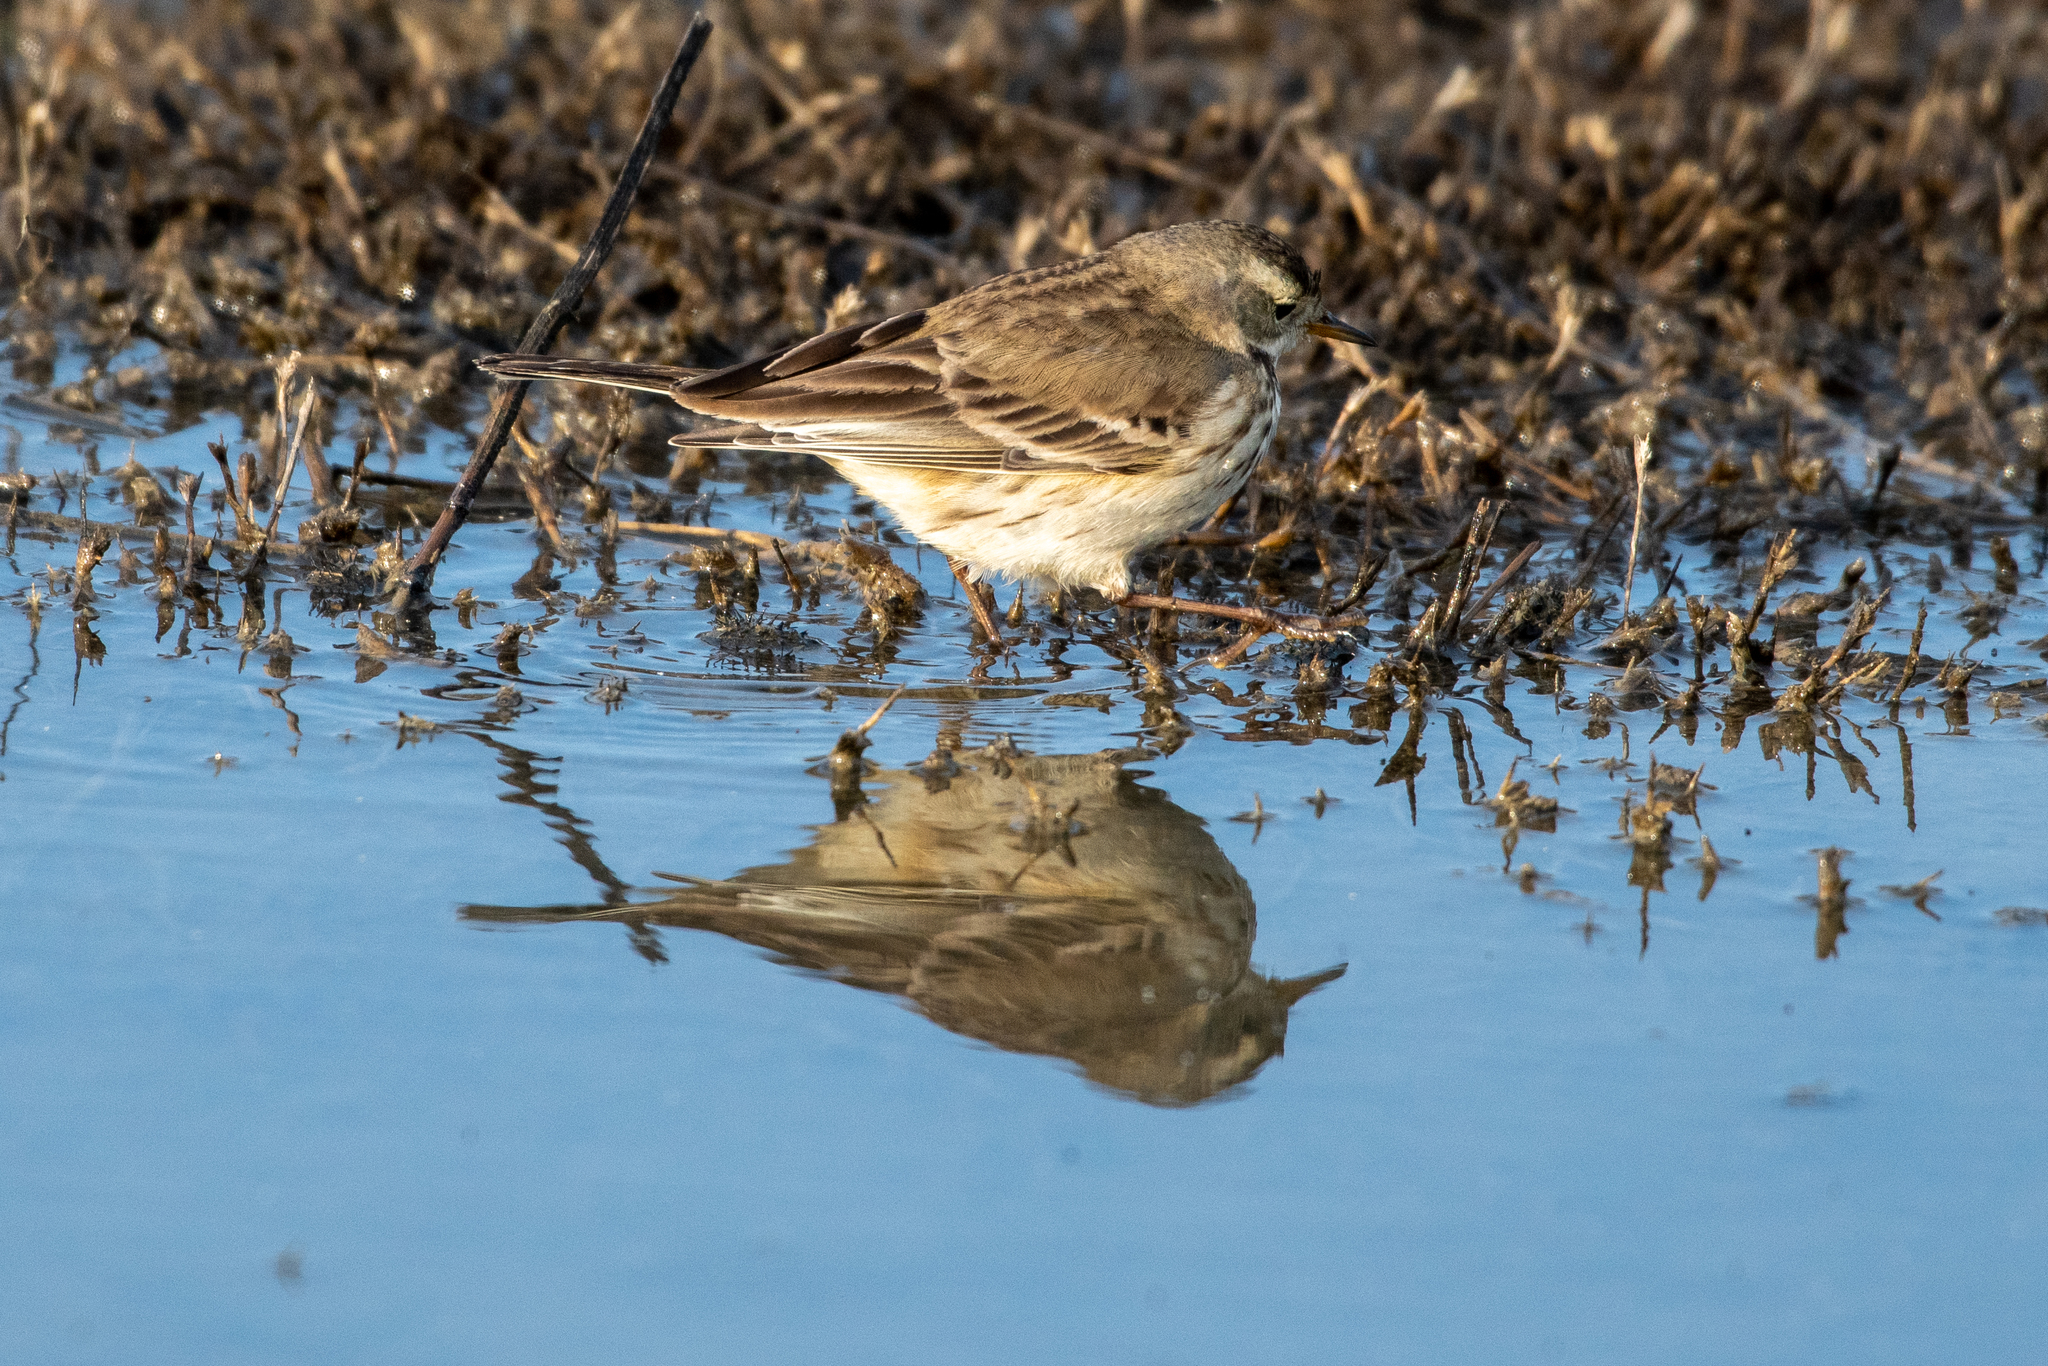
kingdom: Animalia
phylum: Chordata
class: Aves
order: Passeriformes
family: Motacillidae
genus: Anthus
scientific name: Anthus rubescens
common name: Buff-bellied pipit
